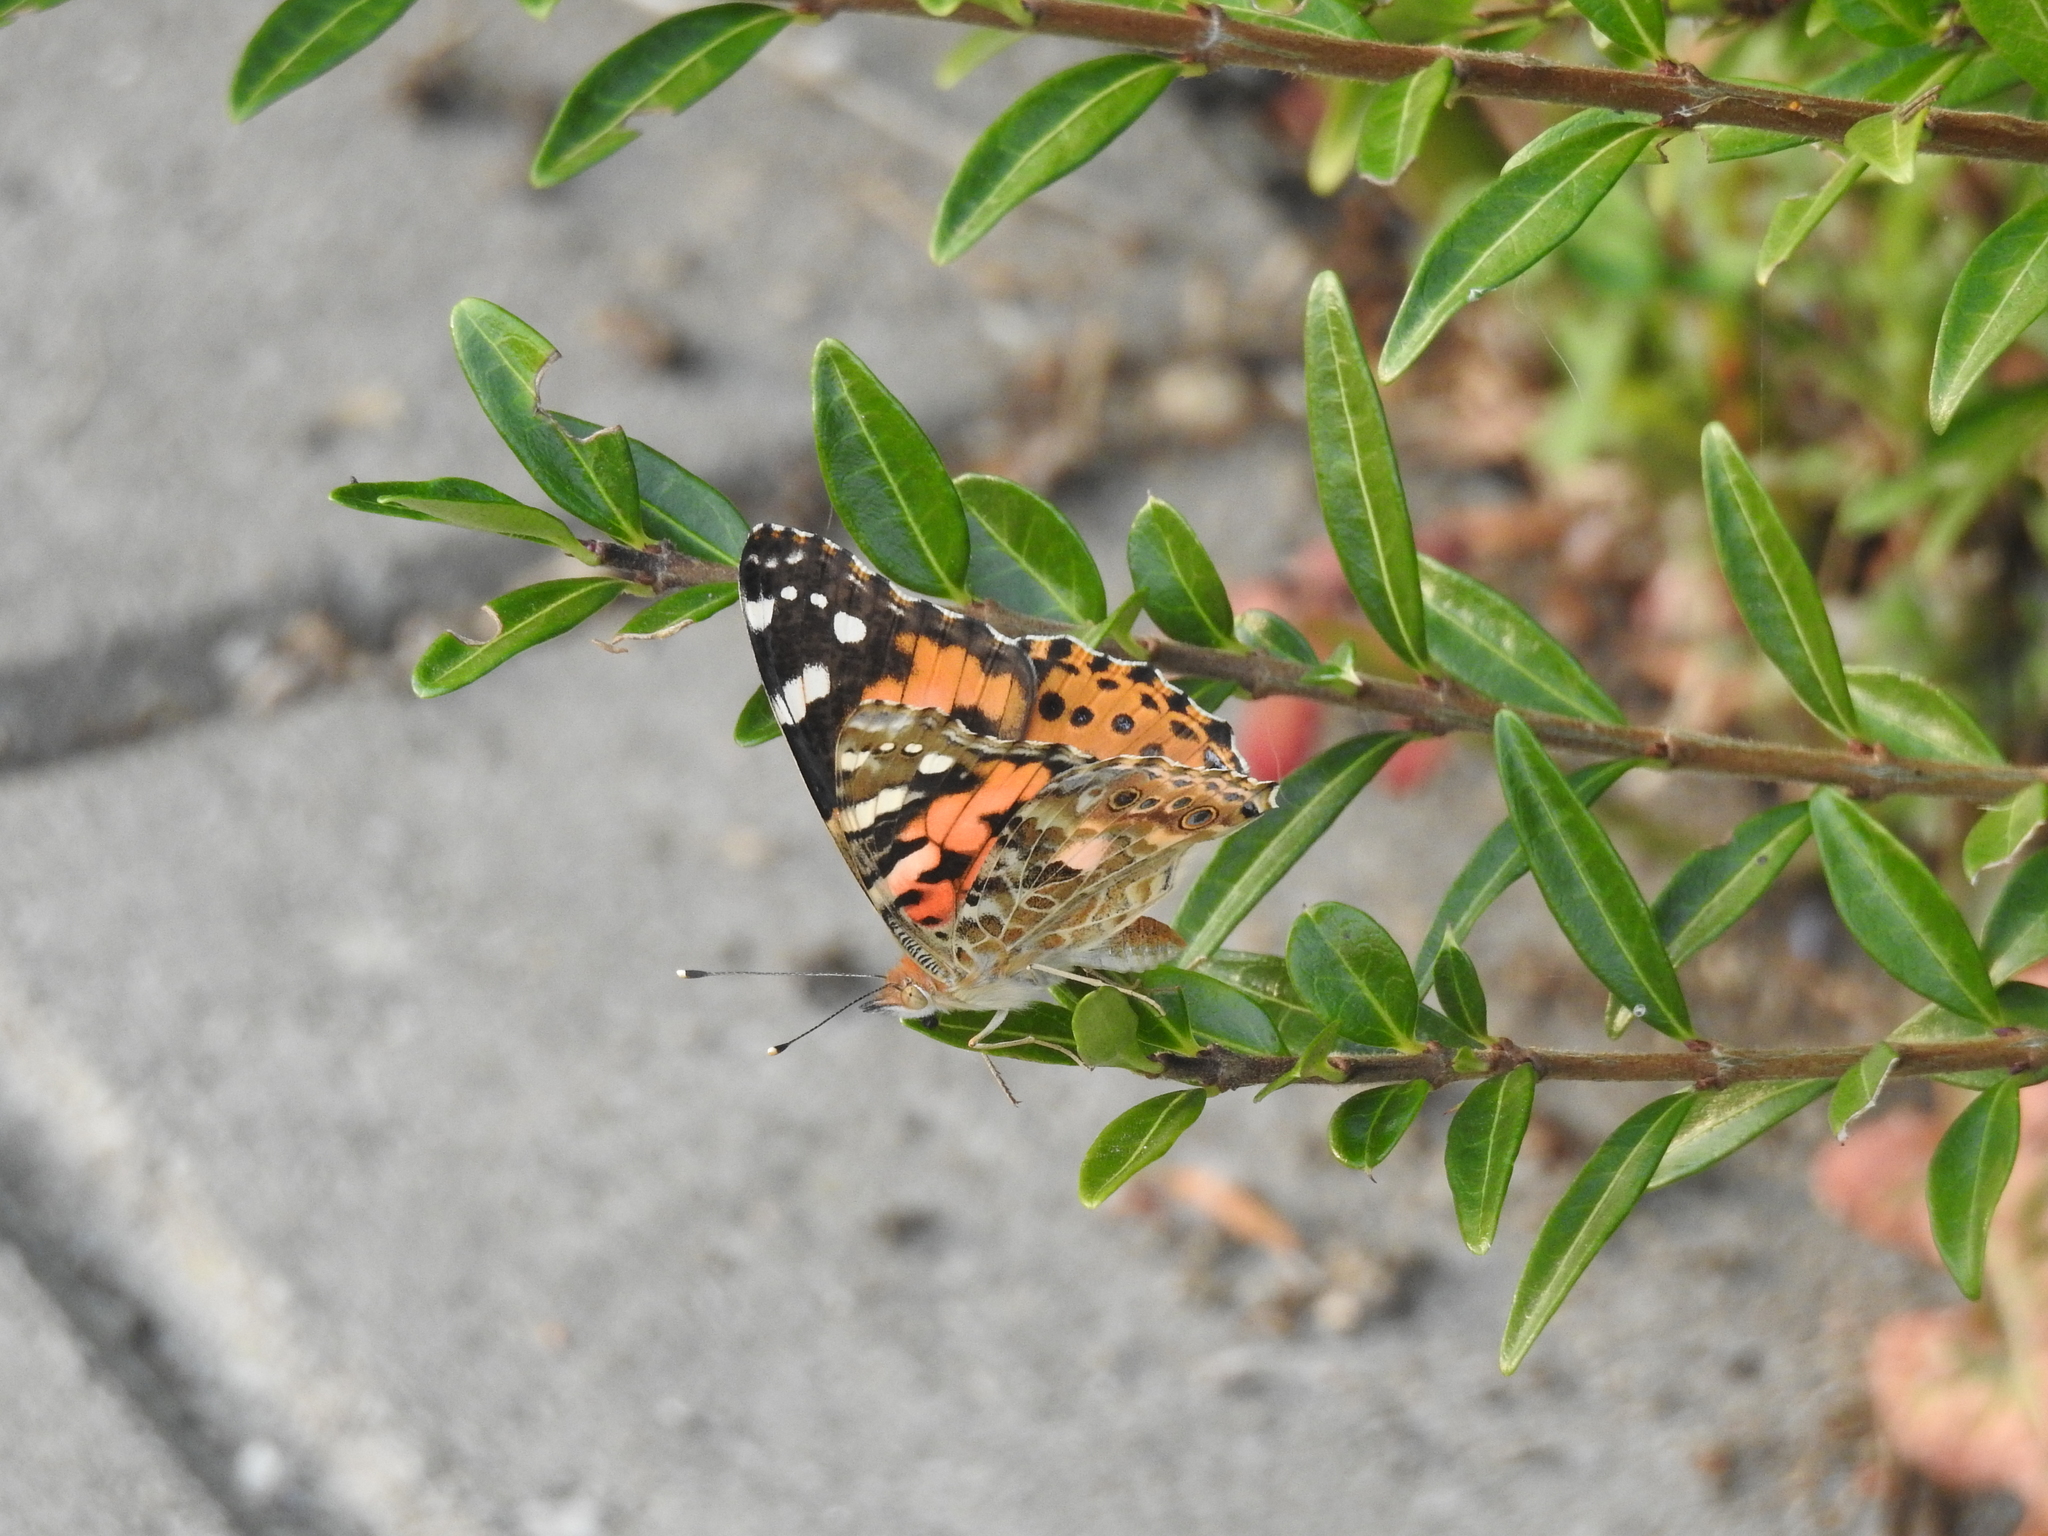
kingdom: Animalia
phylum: Arthropoda
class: Insecta
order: Lepidoptera
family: Nymphalidae
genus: Vanessa
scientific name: Vanessa cardui
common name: Painted lady
